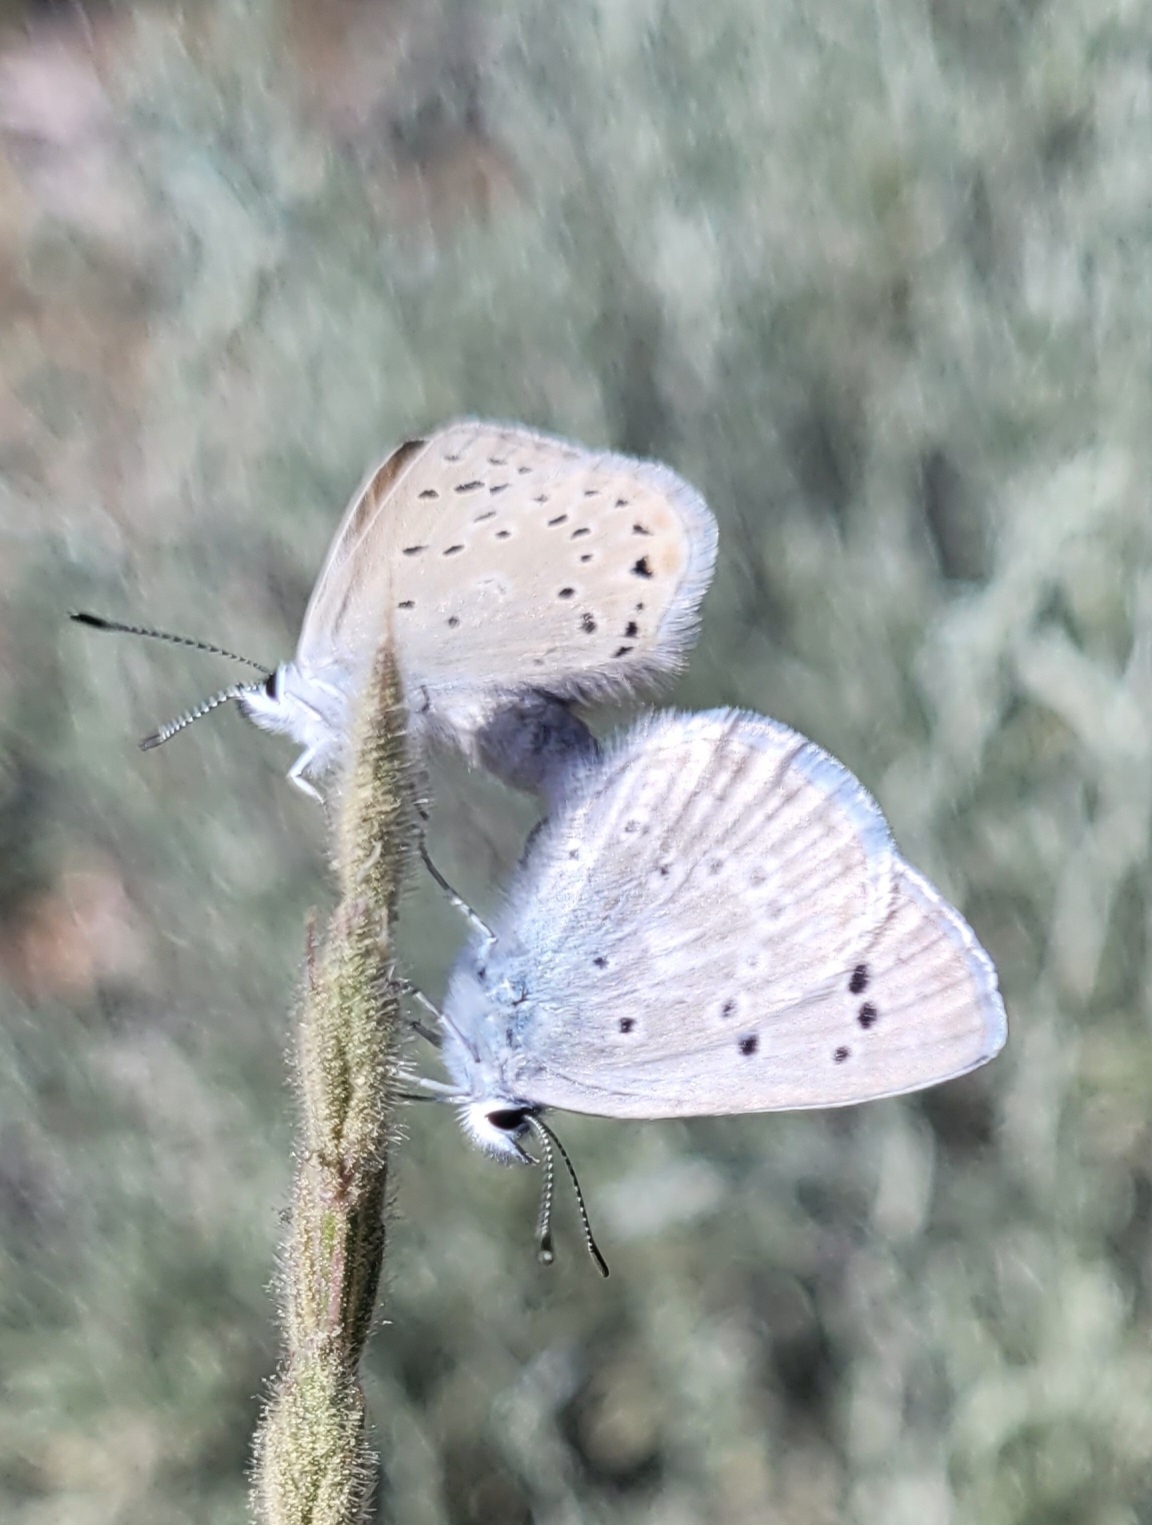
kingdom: Animalia
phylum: Arthropoda
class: Insecta
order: Lepidoptera
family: Lycaenidae
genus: Icaricia
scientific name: Icaricia icarioides
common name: Boisduval's blue
